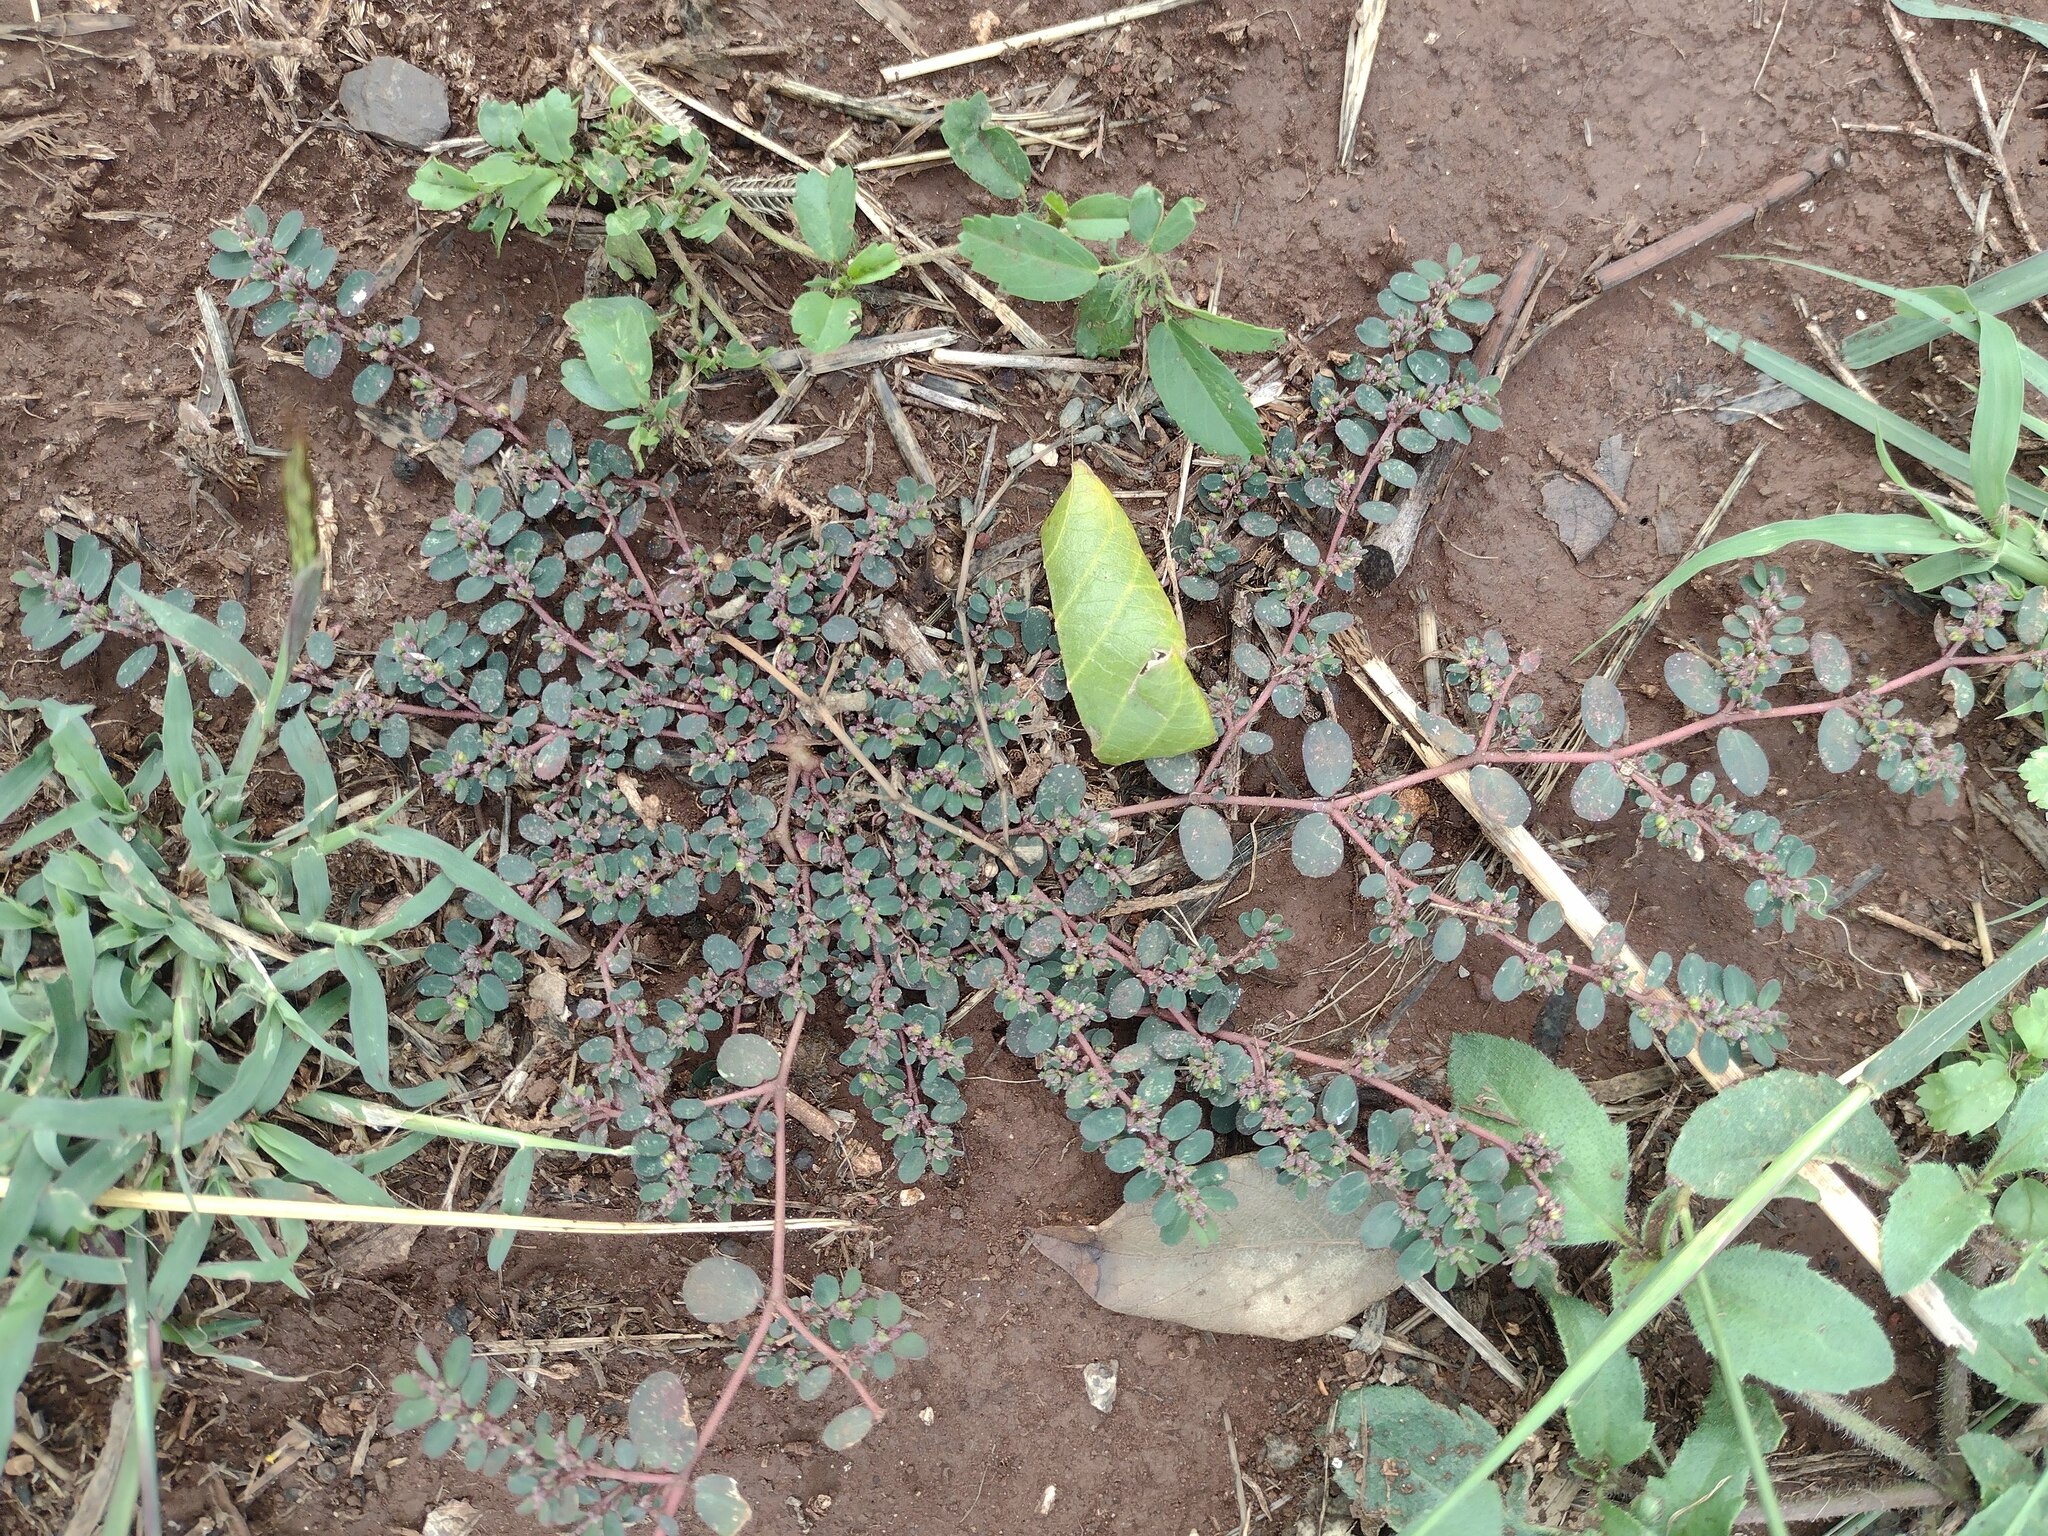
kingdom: Plantae
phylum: Tracheophyta
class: Magnoliopsida
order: Malpighiales
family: Euphorbiaceae
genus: Euphorbia
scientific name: Euphorbia prostrata
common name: Prostrate sandmat
